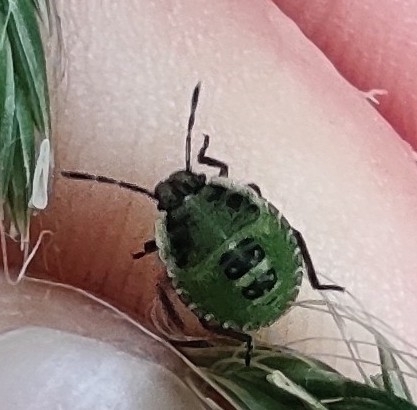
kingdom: Animalia
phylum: Arthropoda
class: Insecta
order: Hemiptera
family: Pentatomidae
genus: Palomena
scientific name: Palomena prasina
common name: Green shieldbug
